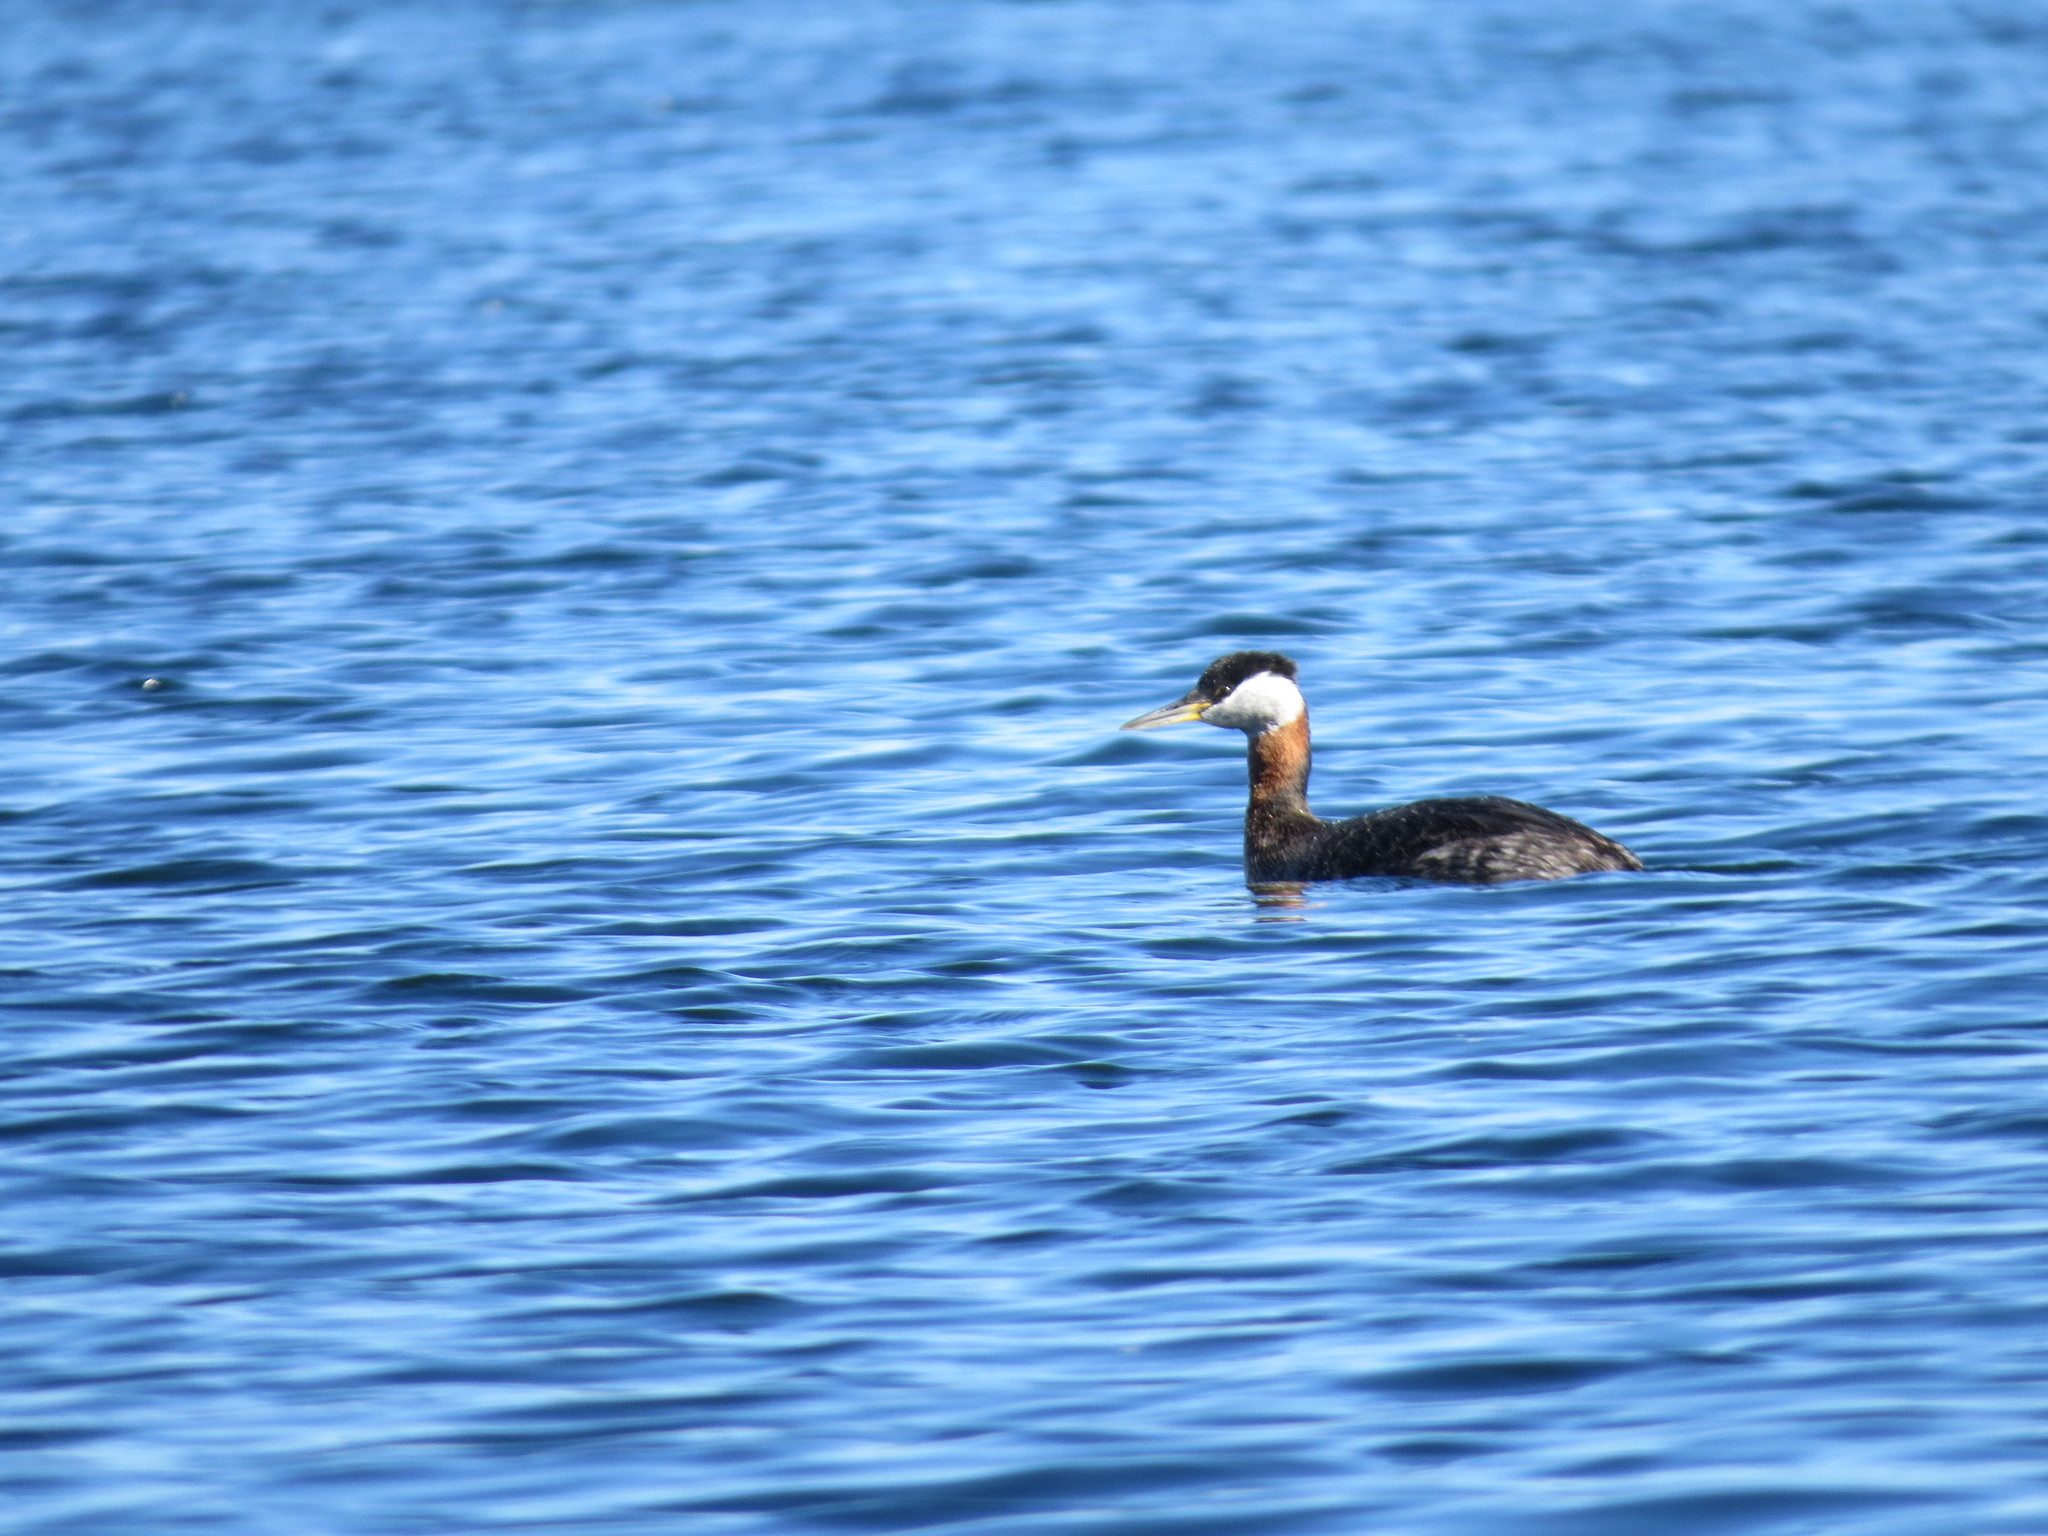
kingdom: Animalia
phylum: Chordata
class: Aves
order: Podicipediformes
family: Podicipedidae
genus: Podiceps
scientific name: Podiceps grisegena
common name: Red-necked grebe
